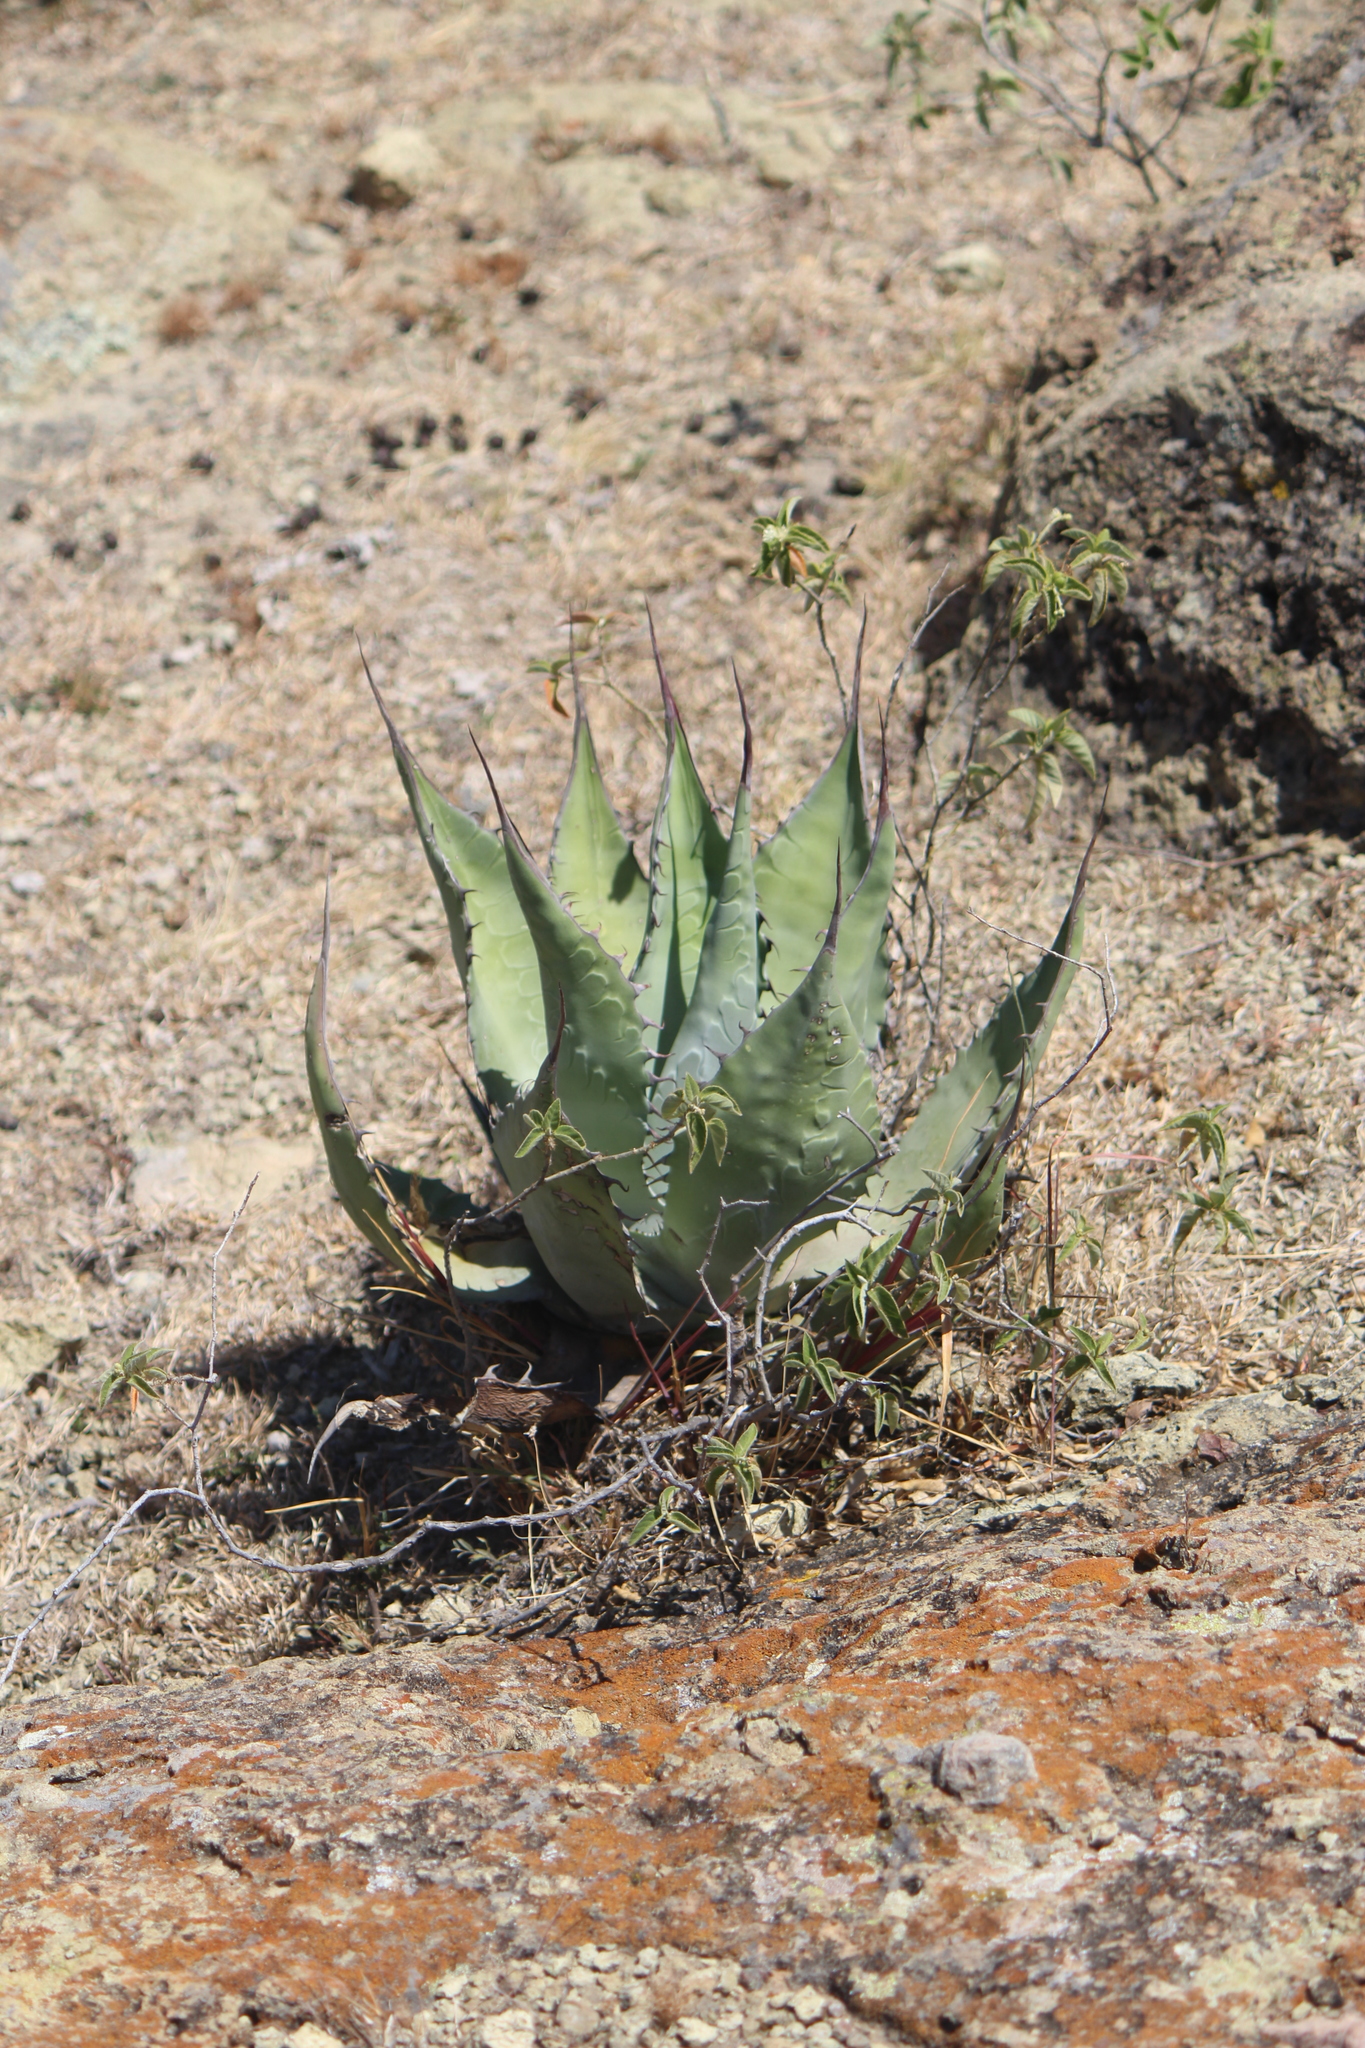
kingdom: Plantae
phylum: Tracheophyta
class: Liliopsida
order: Asparagales
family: Asparagaceae
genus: Agave
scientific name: Agave salmiana
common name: Pulque agave
